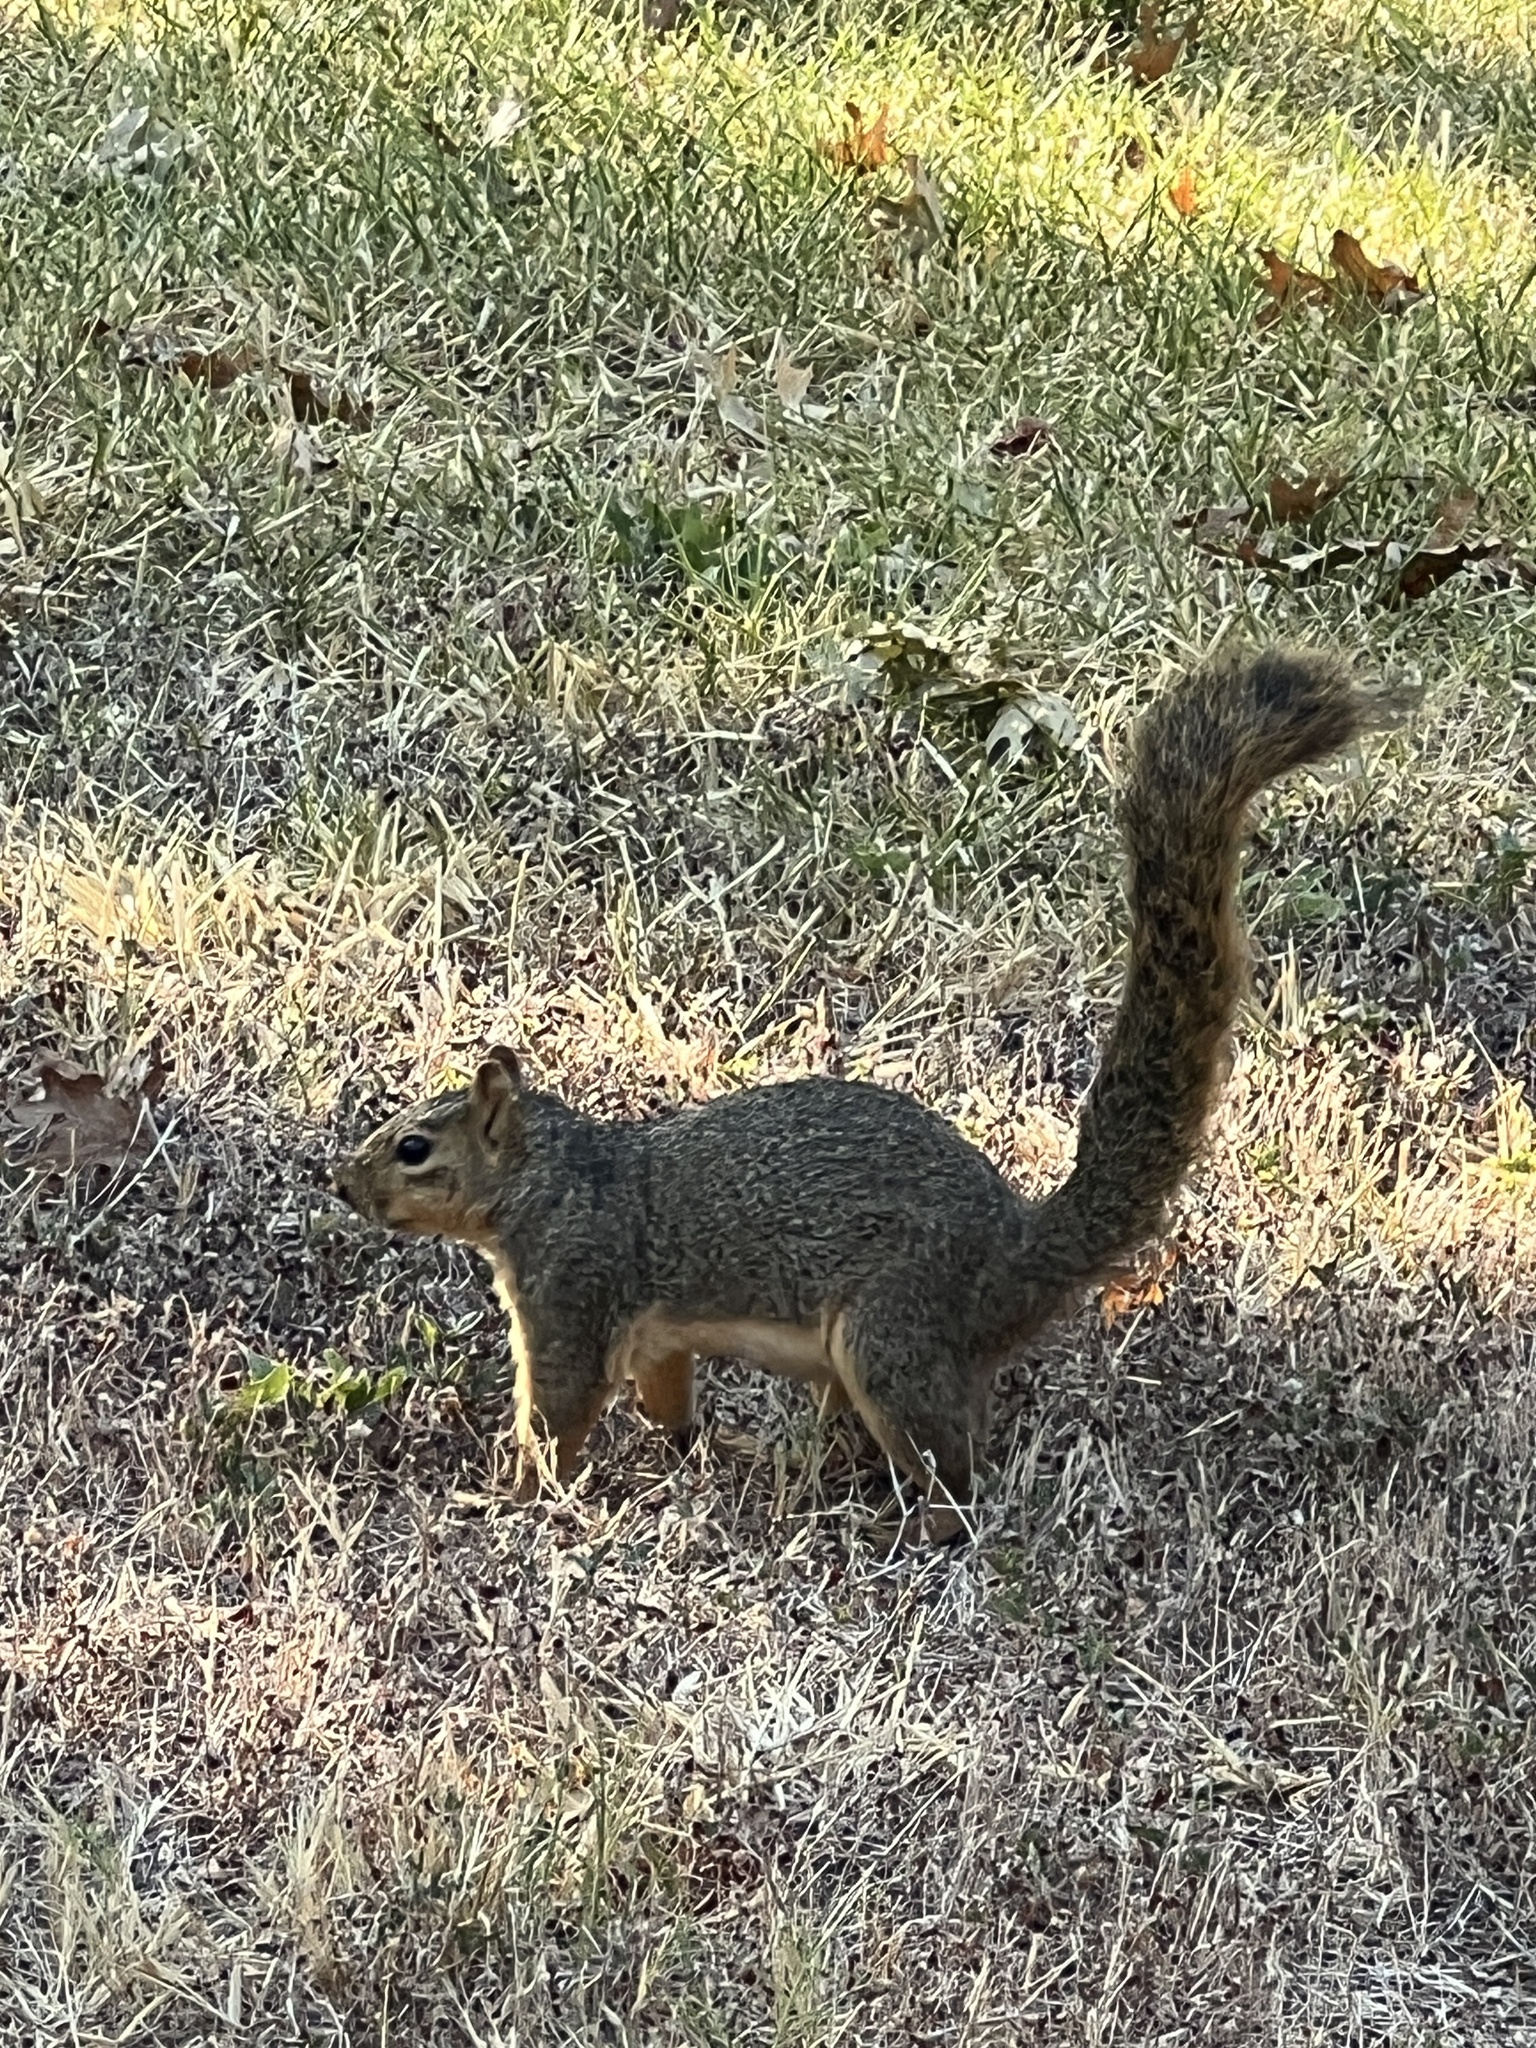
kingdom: Animalia
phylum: Chordata
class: Mammalia
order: Rodentia
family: Sciuridae
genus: Sciurus
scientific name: Sciurus niger
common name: Fox squirrel
